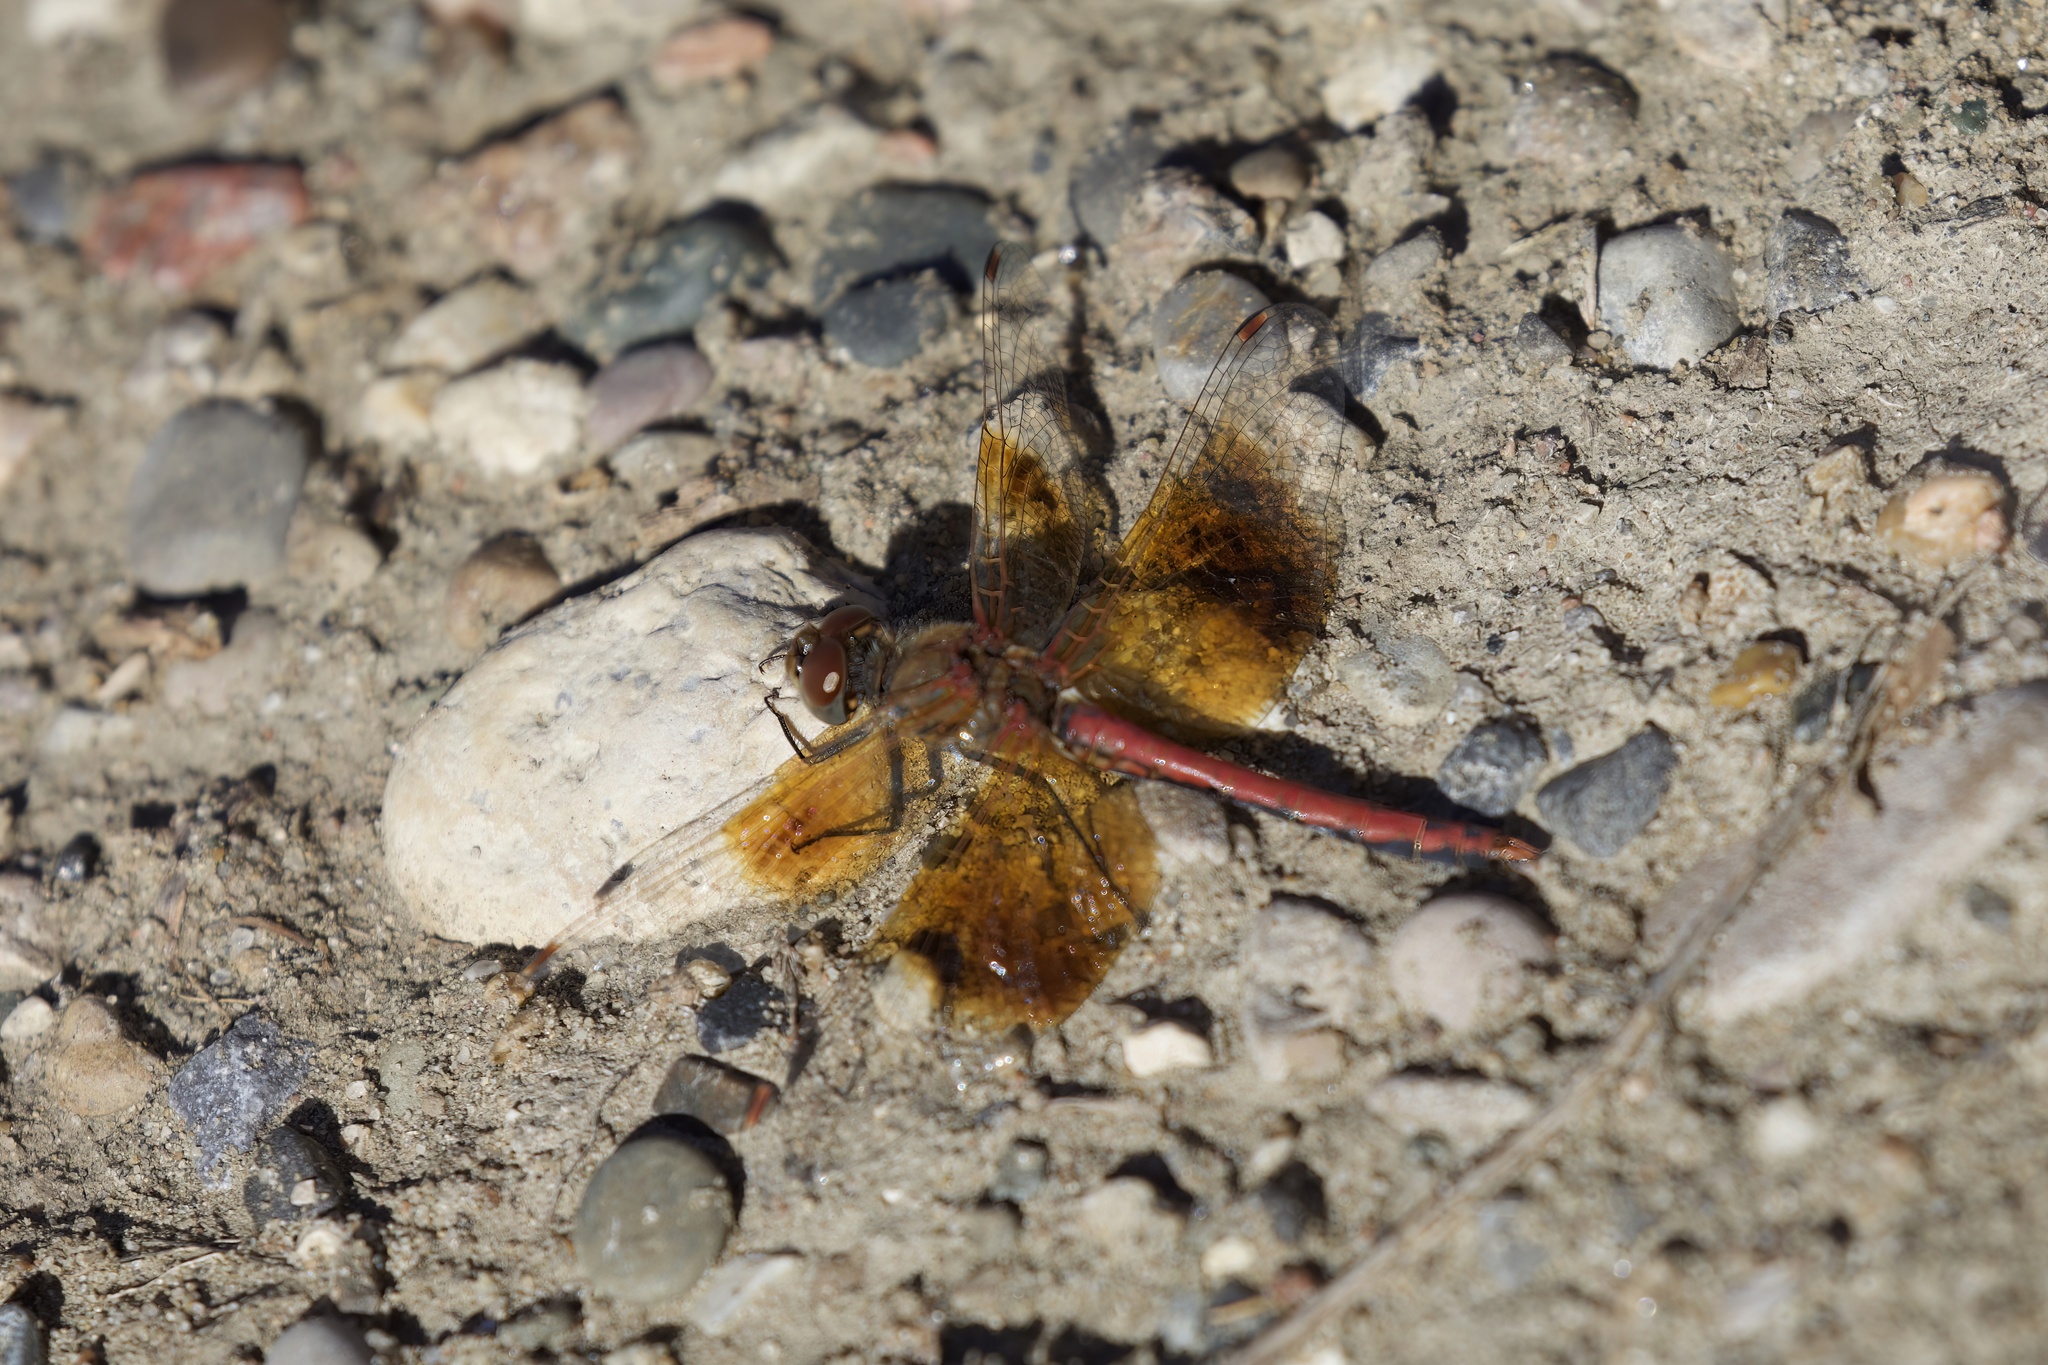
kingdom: Animalia
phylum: Arthropoda
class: Insecta
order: Odonata
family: Libellulidae
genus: Sympetrum
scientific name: Sympetrum semicinctum
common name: Band-winged meadowhawk
